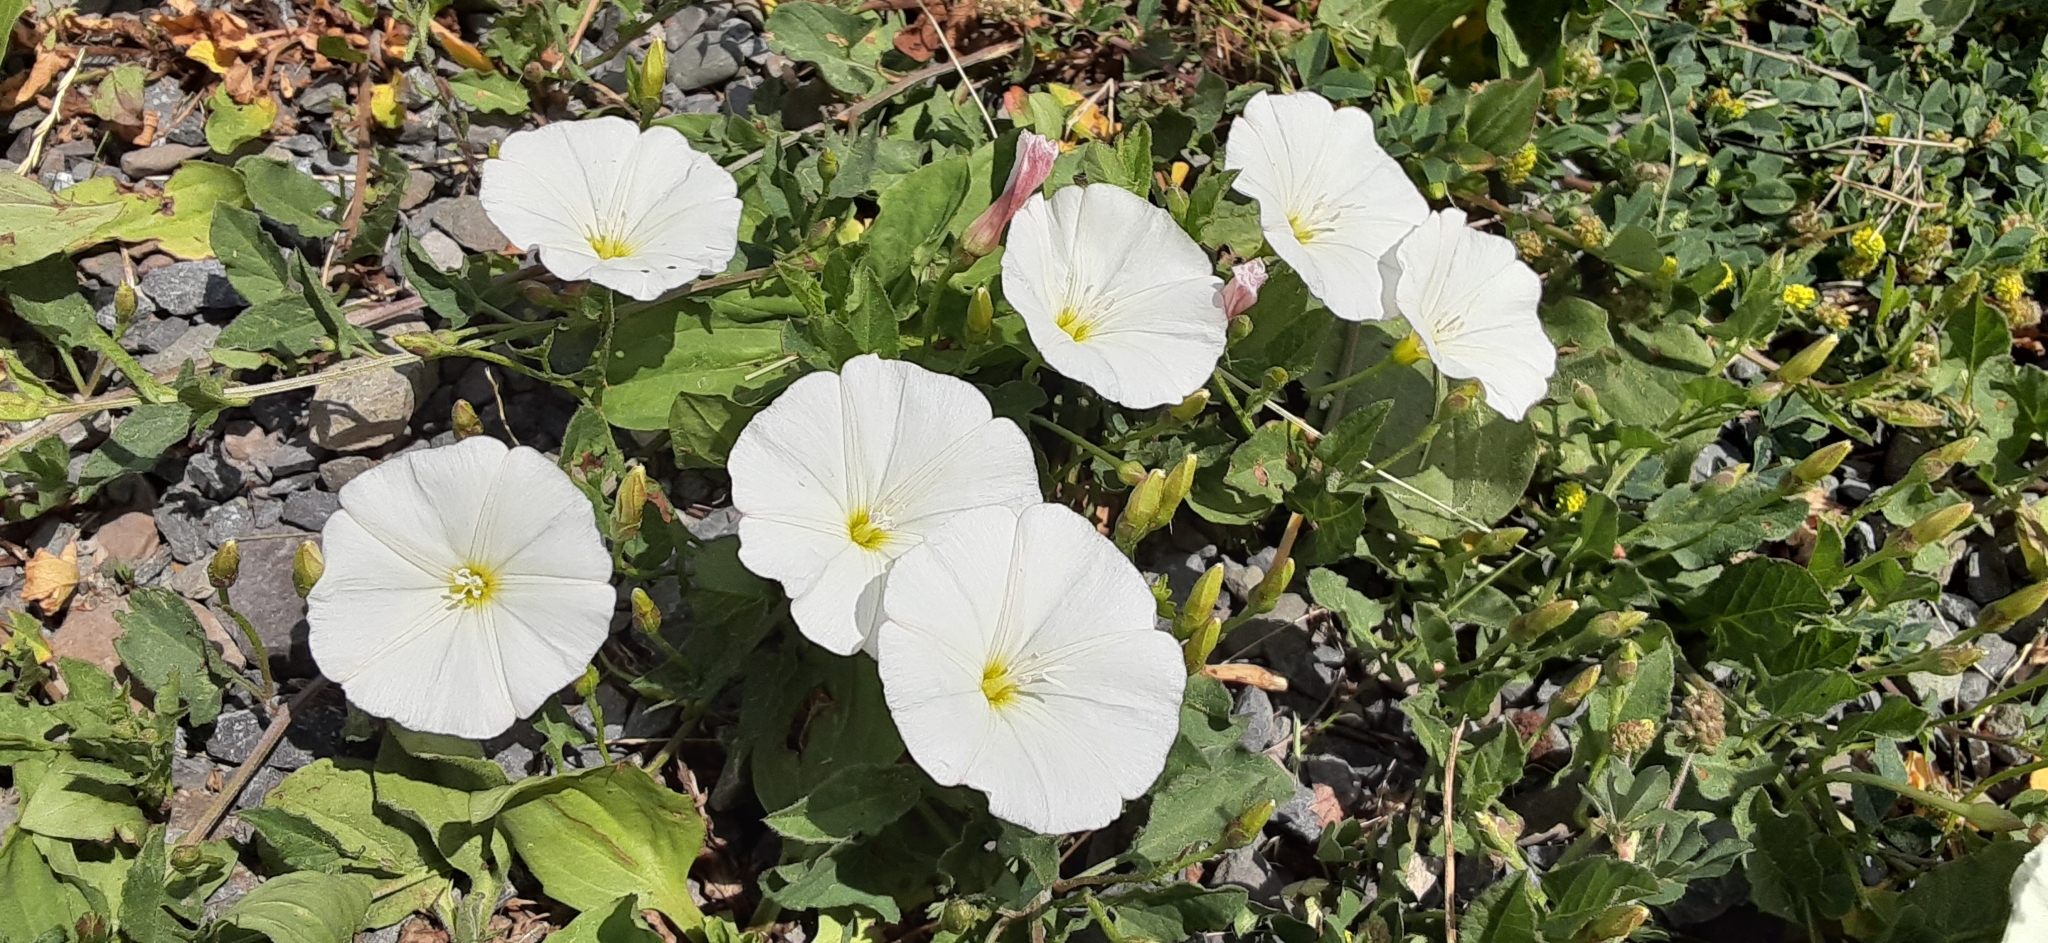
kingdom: Plantae
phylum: Tracheophyta
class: Magnoliopsida
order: Solanales
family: Convolvulaceae
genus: Convolvulus
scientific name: Convolvulus arvensis
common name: Field bindweed
